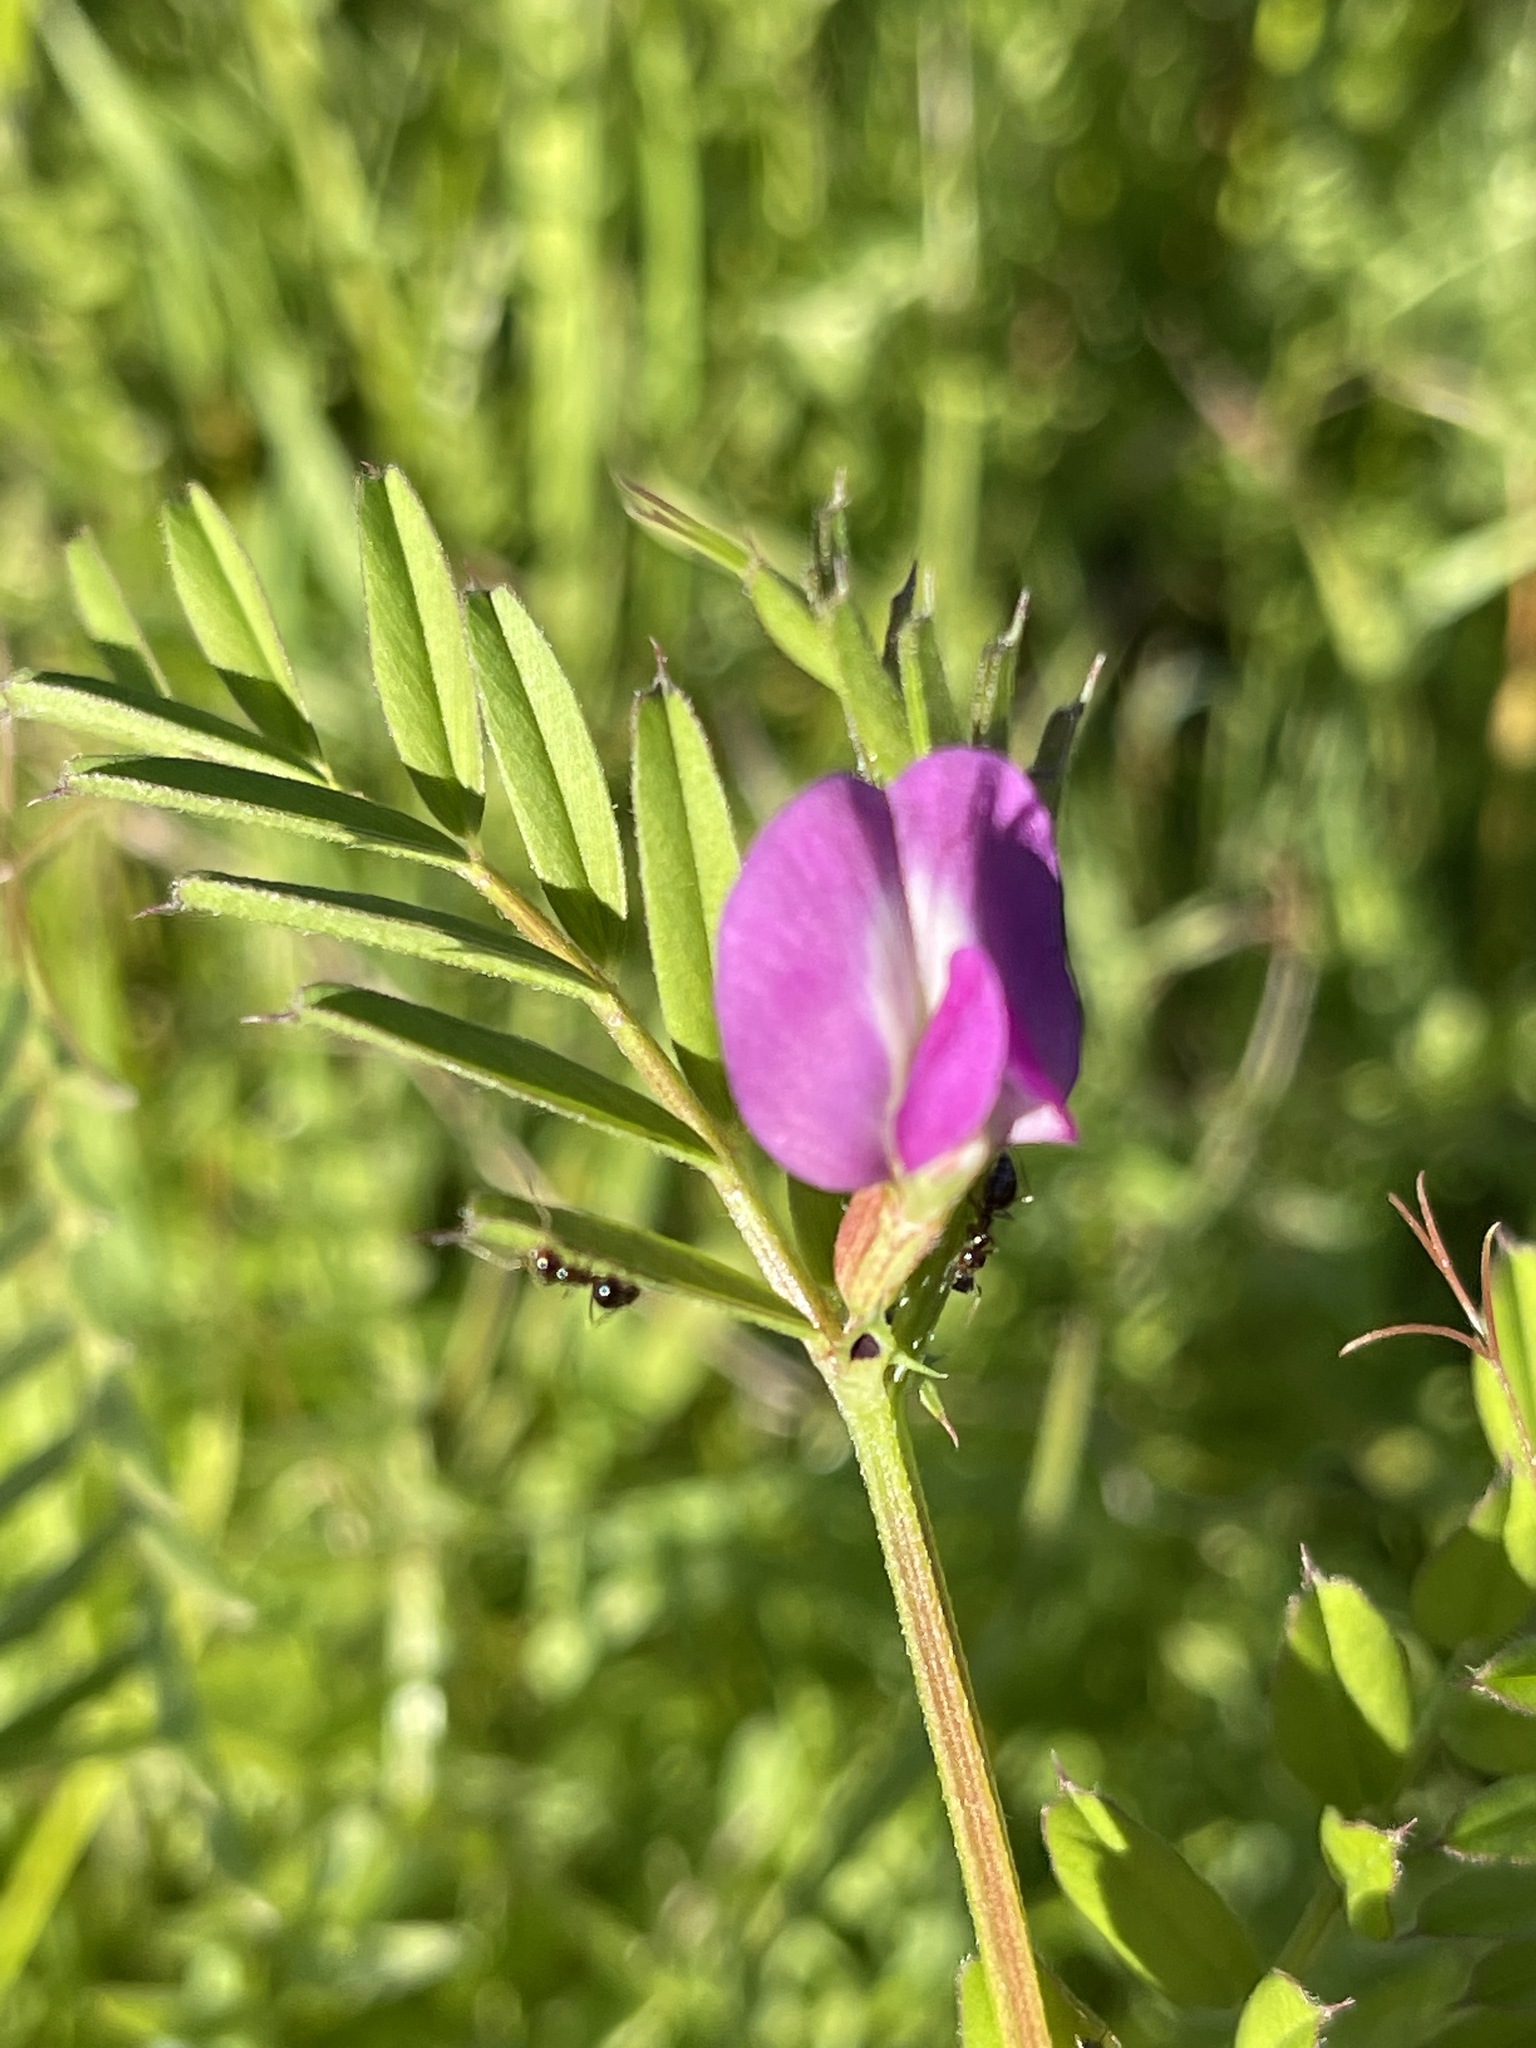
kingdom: Plantae
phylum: Tracheophyta
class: Magnoliopsida
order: Fabales
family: Fabaceae
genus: Vicia
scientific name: Vicia sativa
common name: Garden vetch
